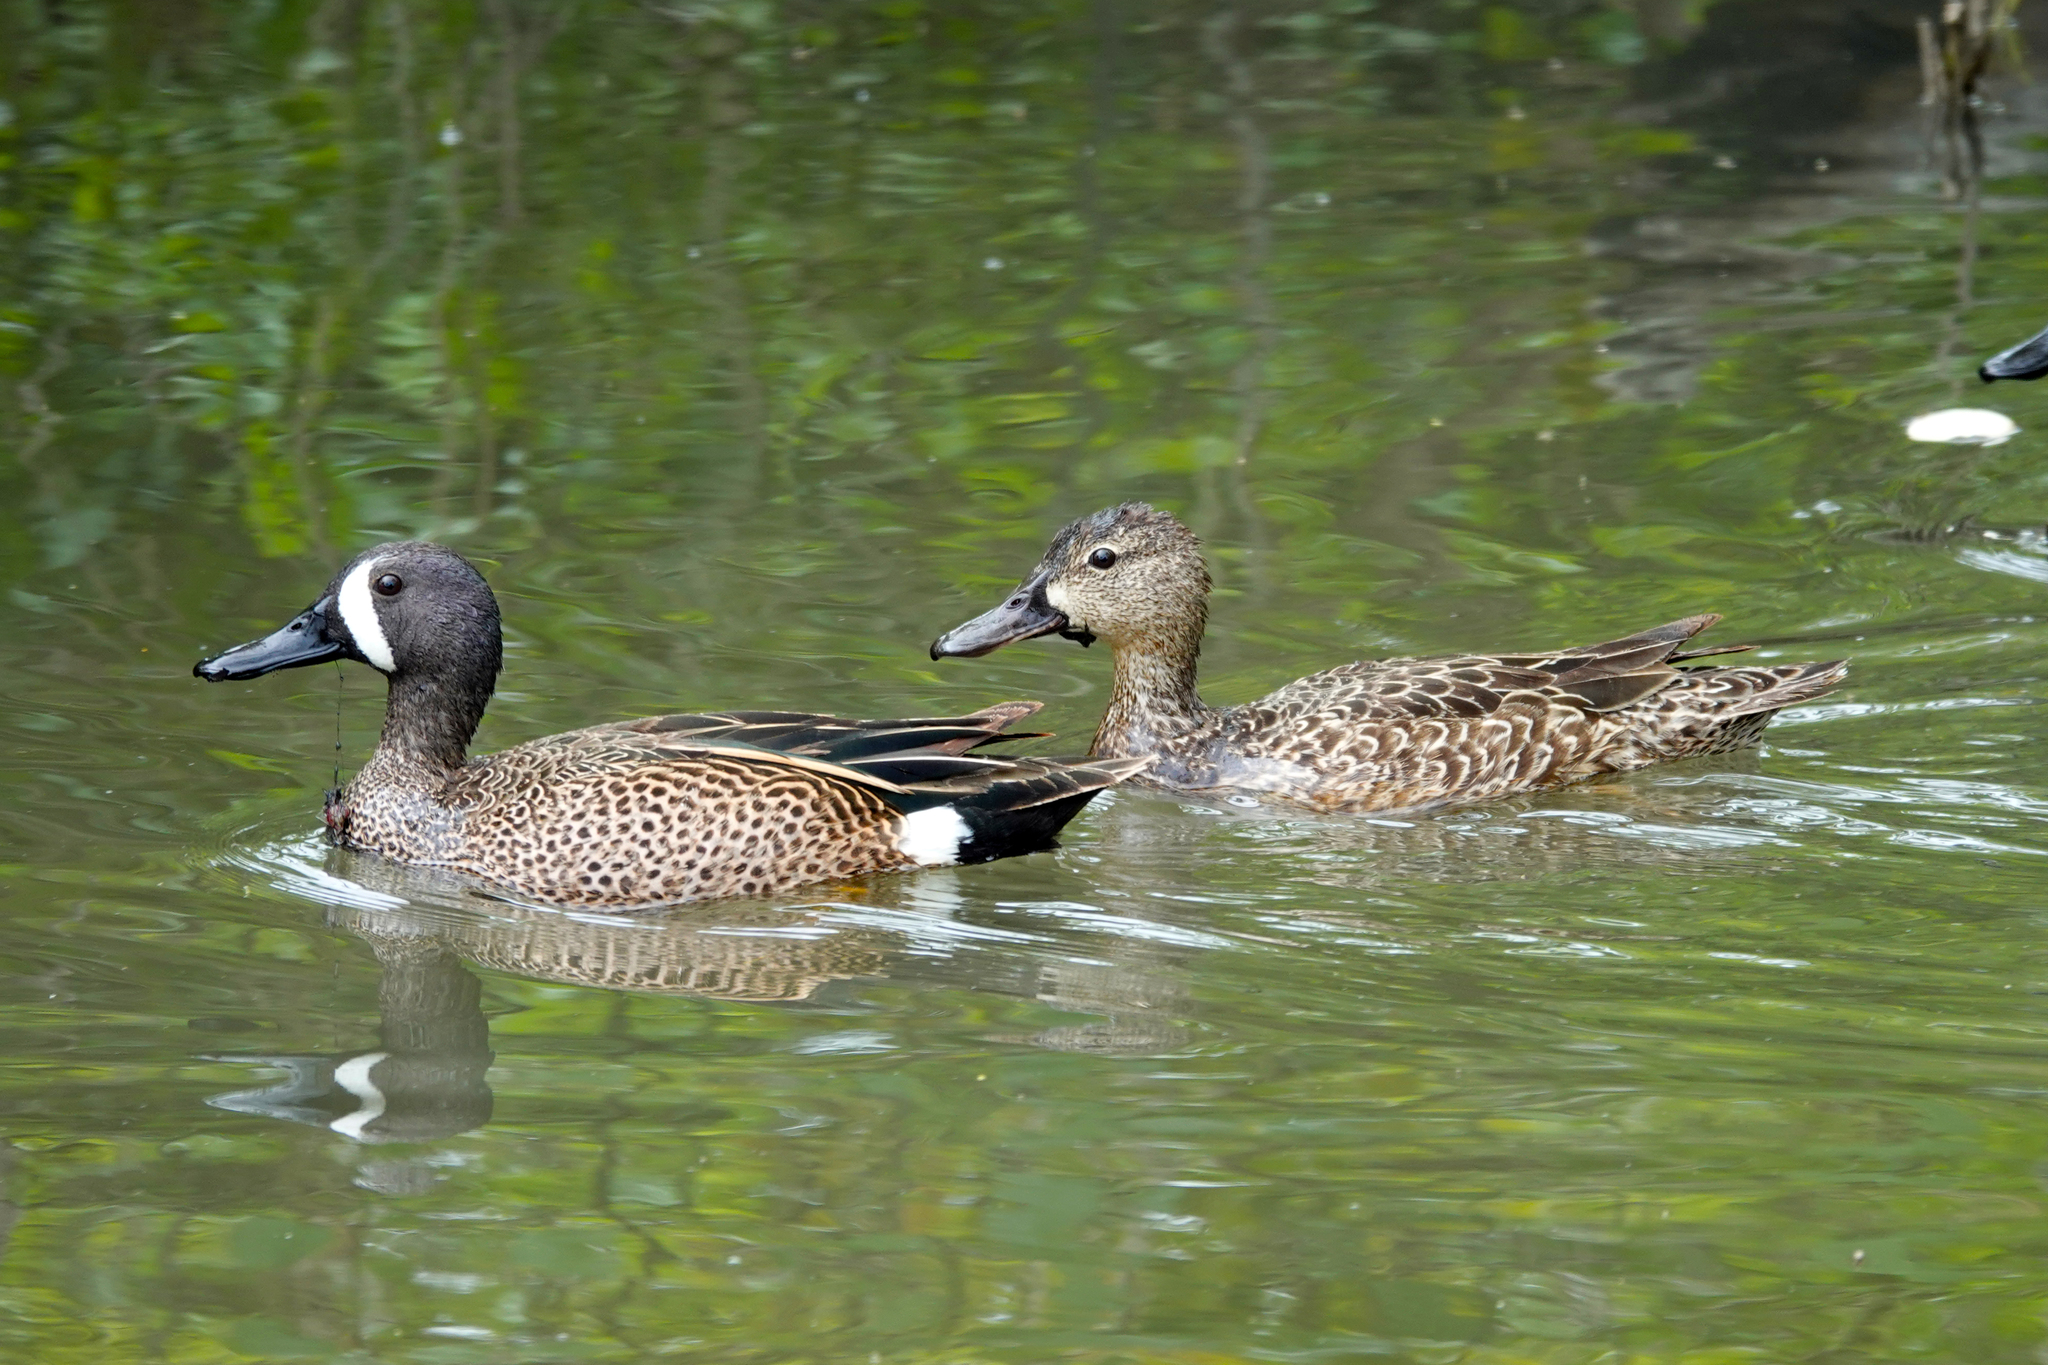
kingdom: Animalia
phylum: Chordata
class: Aves
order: Anseriformes
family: Anatidae
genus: Spatula
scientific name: Spatula discors
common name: Blue-winged teal
